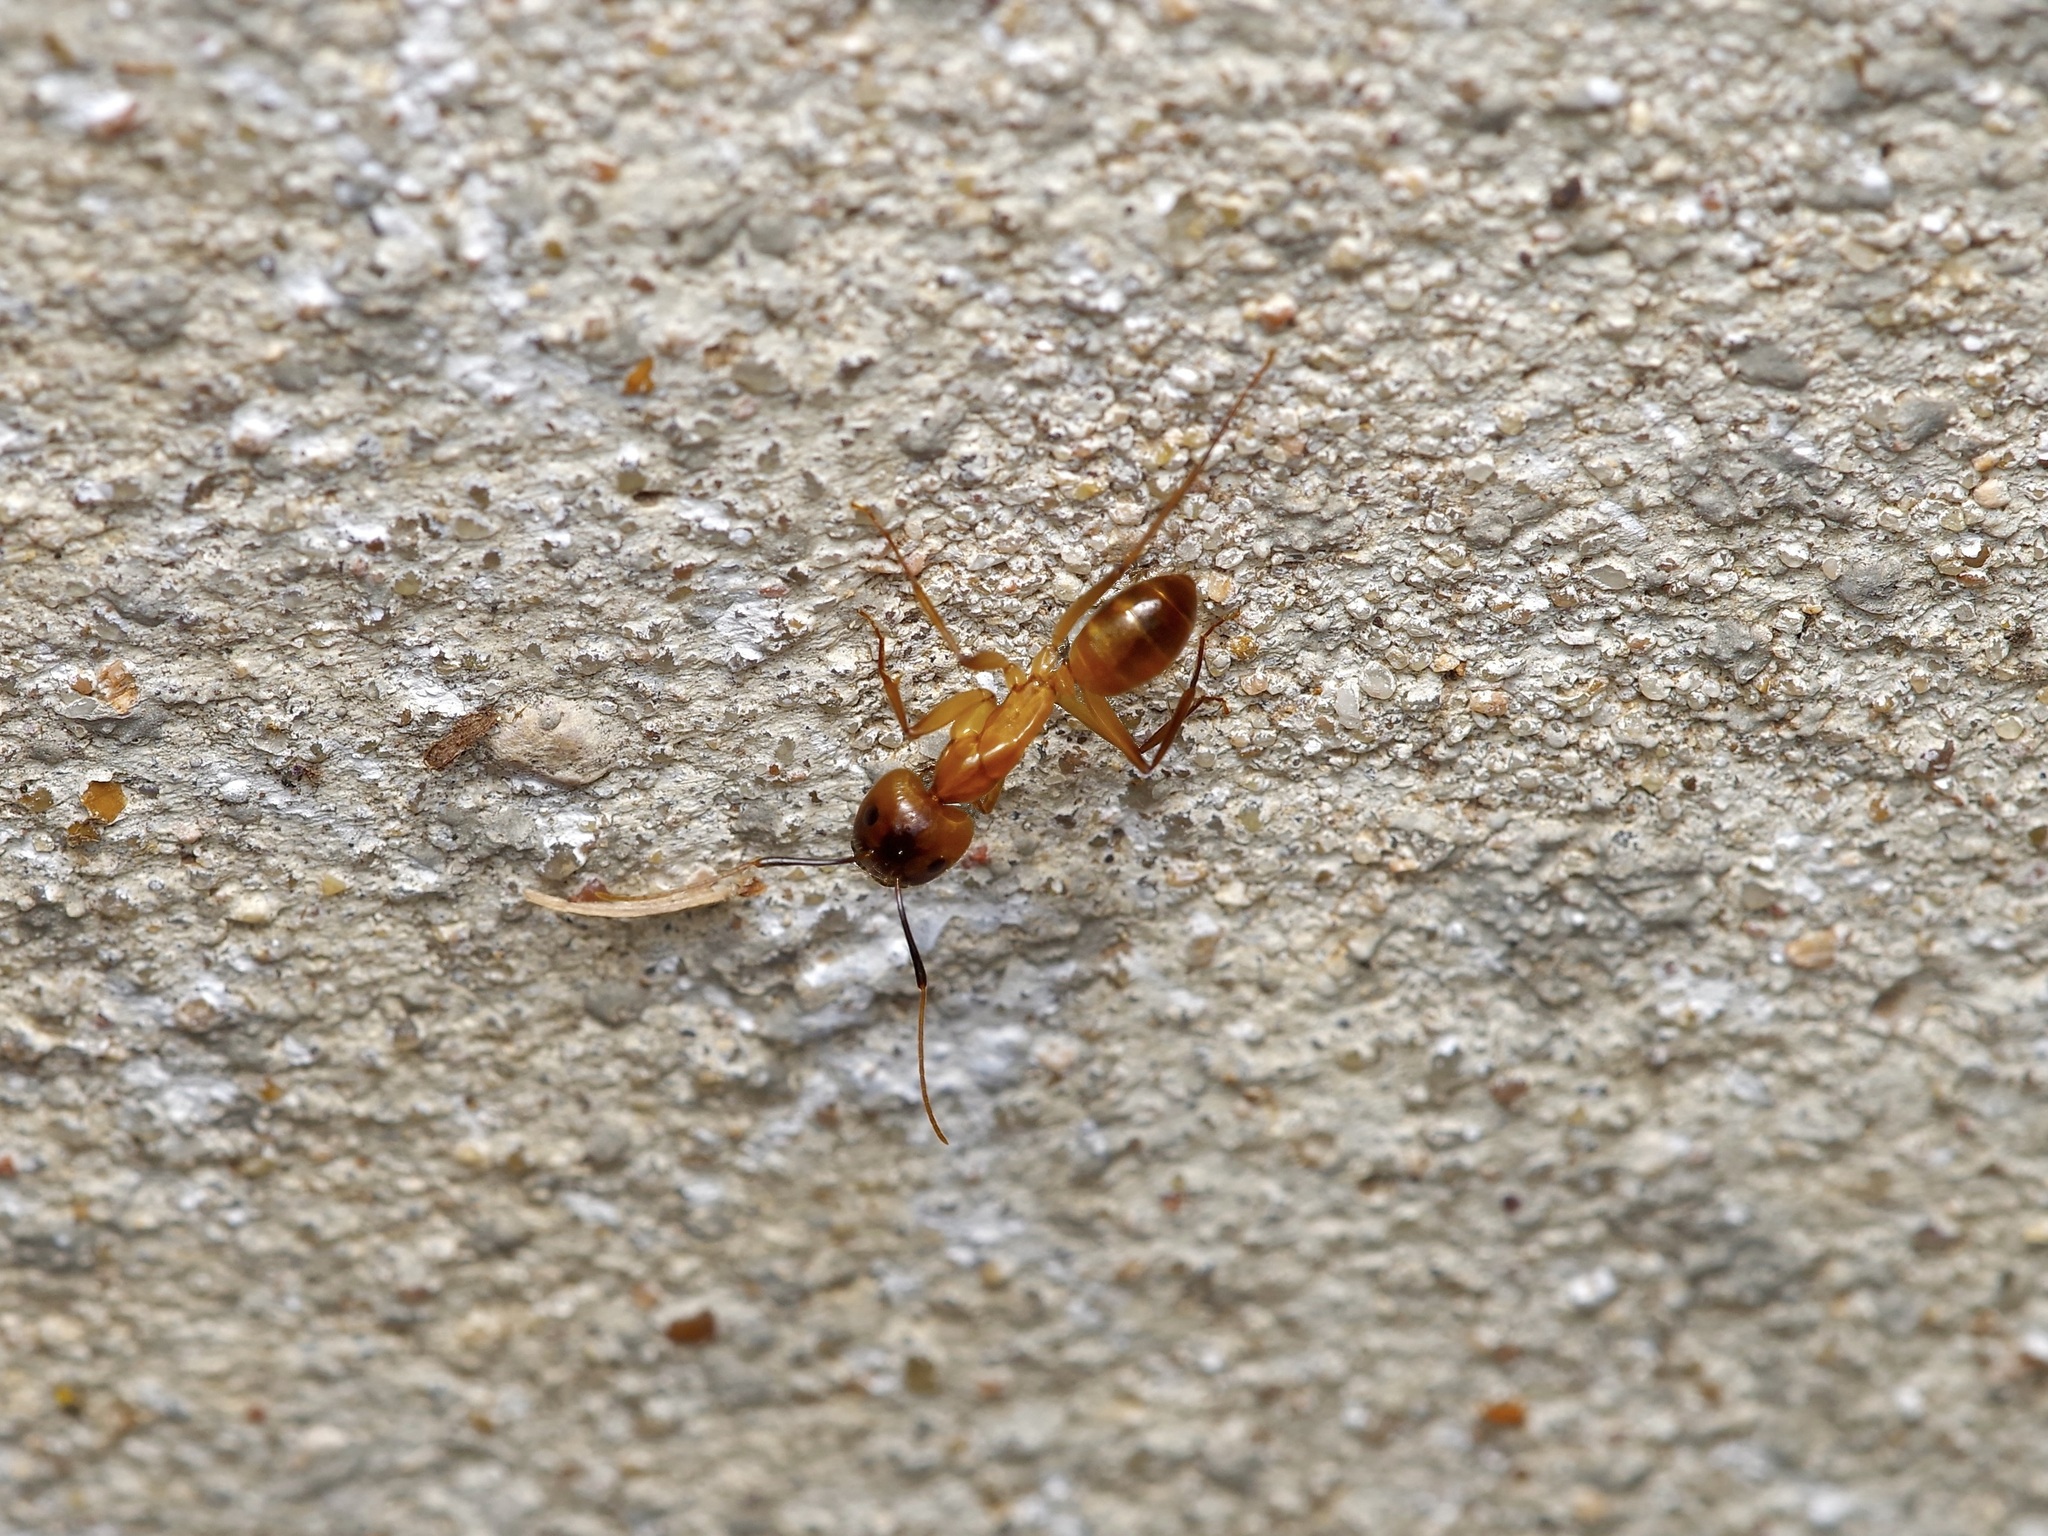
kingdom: Animalia
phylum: Arthropoda
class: Insecta
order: Hymenoptera
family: Formicidae
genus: Camponotus
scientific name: Camponotus festinatus
